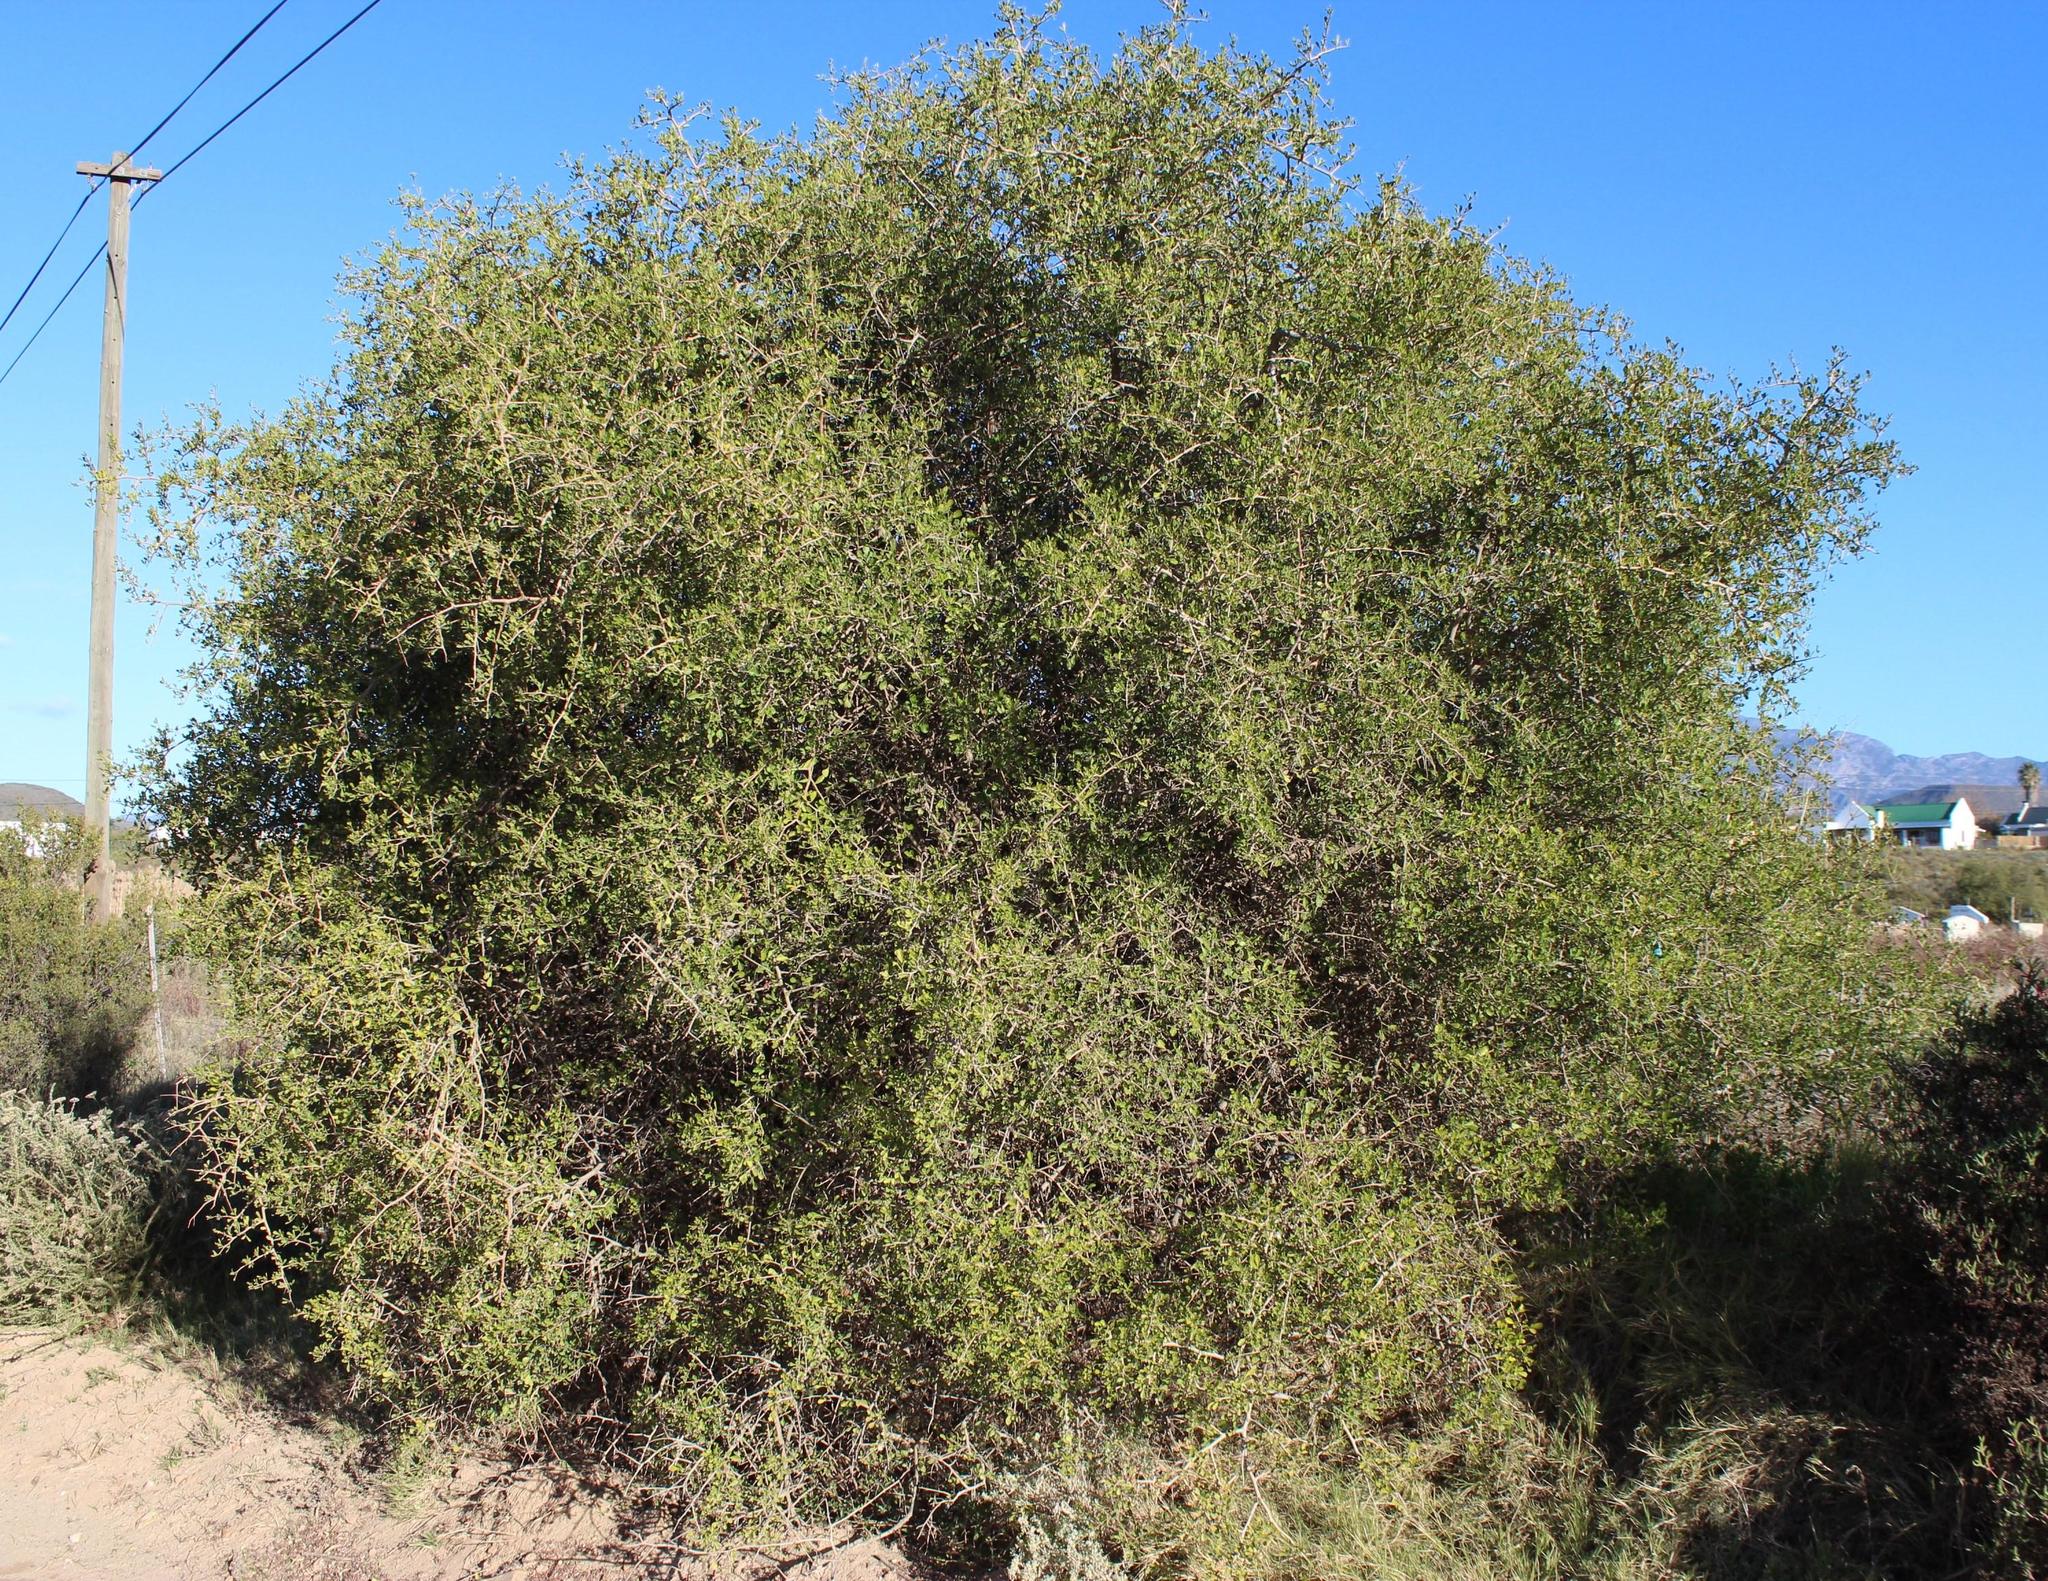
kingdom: Plantae
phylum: Tracheophyta
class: Magnoliopsida
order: Sapindales
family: Anacardiaceae
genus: Searsia
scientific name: Searsia longispina
